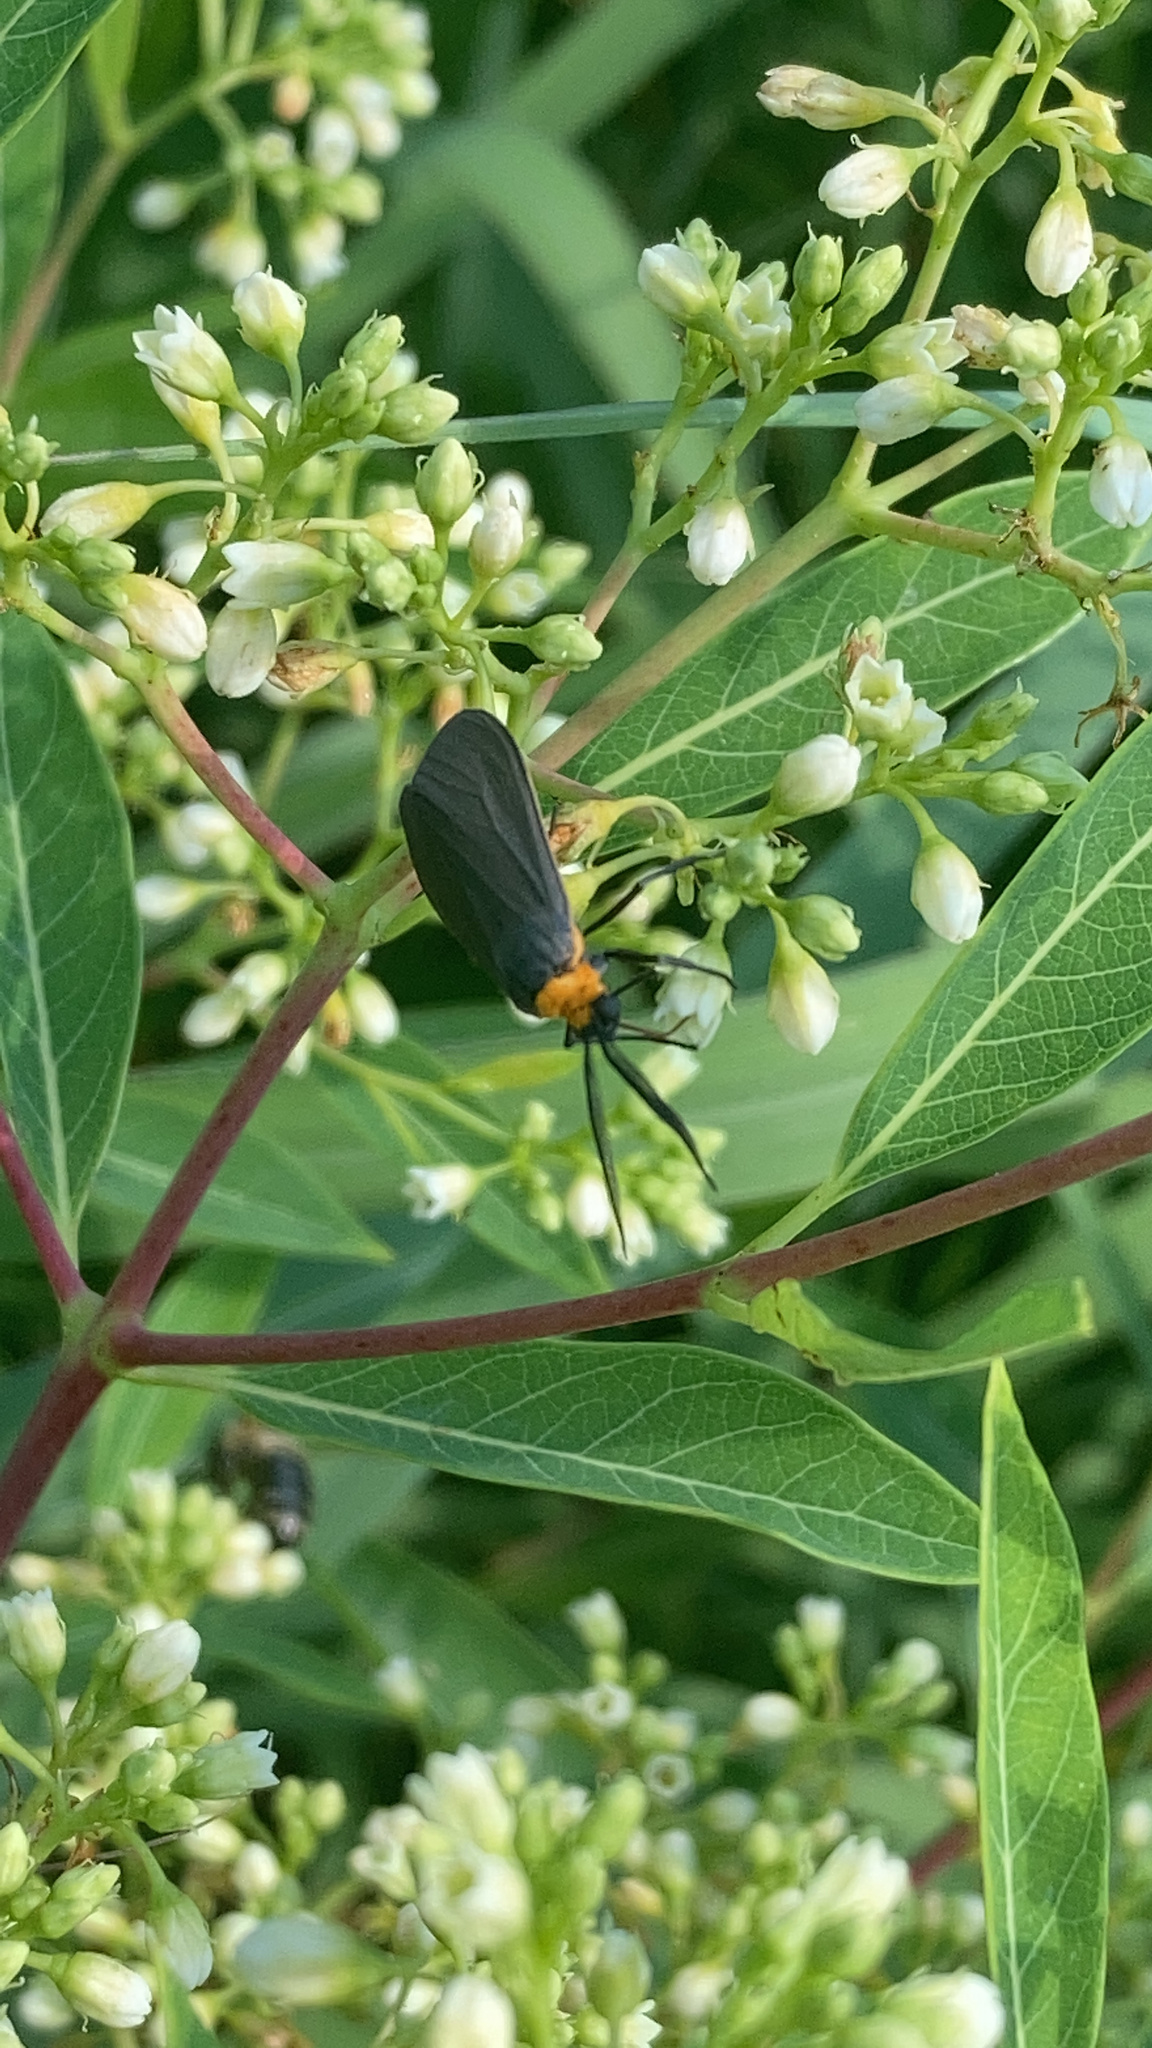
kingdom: Animalia
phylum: Arthropoda
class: Insecta
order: Lepidoptera
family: Erebidae
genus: Cisseps
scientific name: Cisseps fulvicollis
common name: Yellow-collared scape moth
